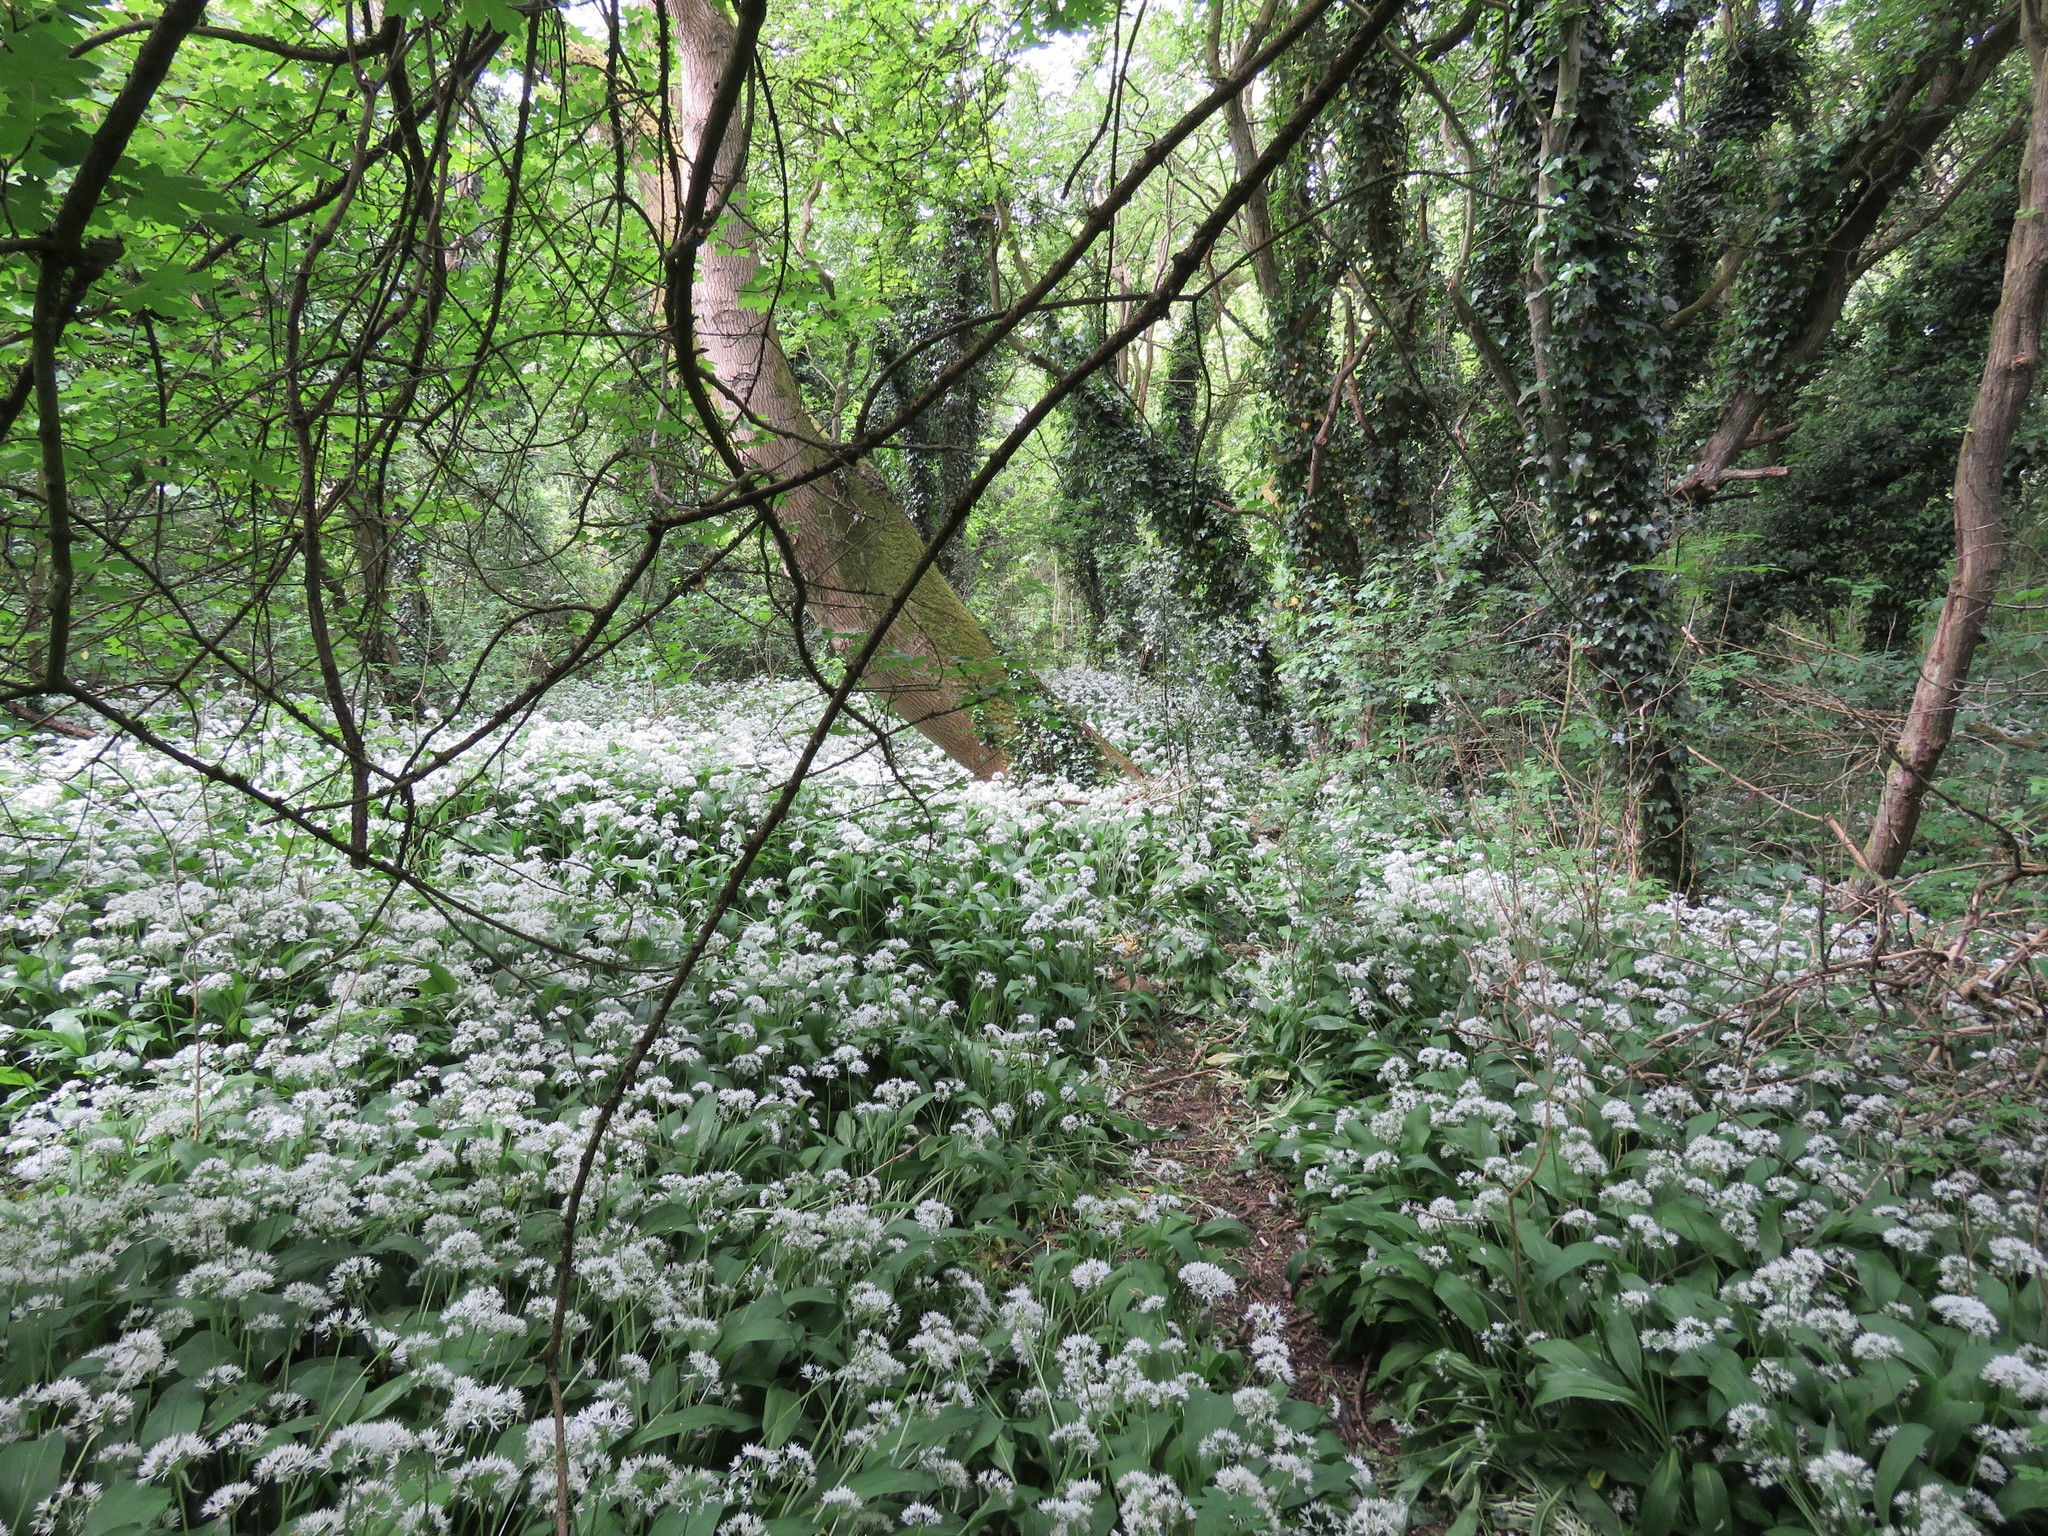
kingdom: Plantae
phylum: Tracheophyta
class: Liliopsida
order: Asparagales
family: Amaryllidaceae
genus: Allium
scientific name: Allium ursinum
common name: Ramsons
